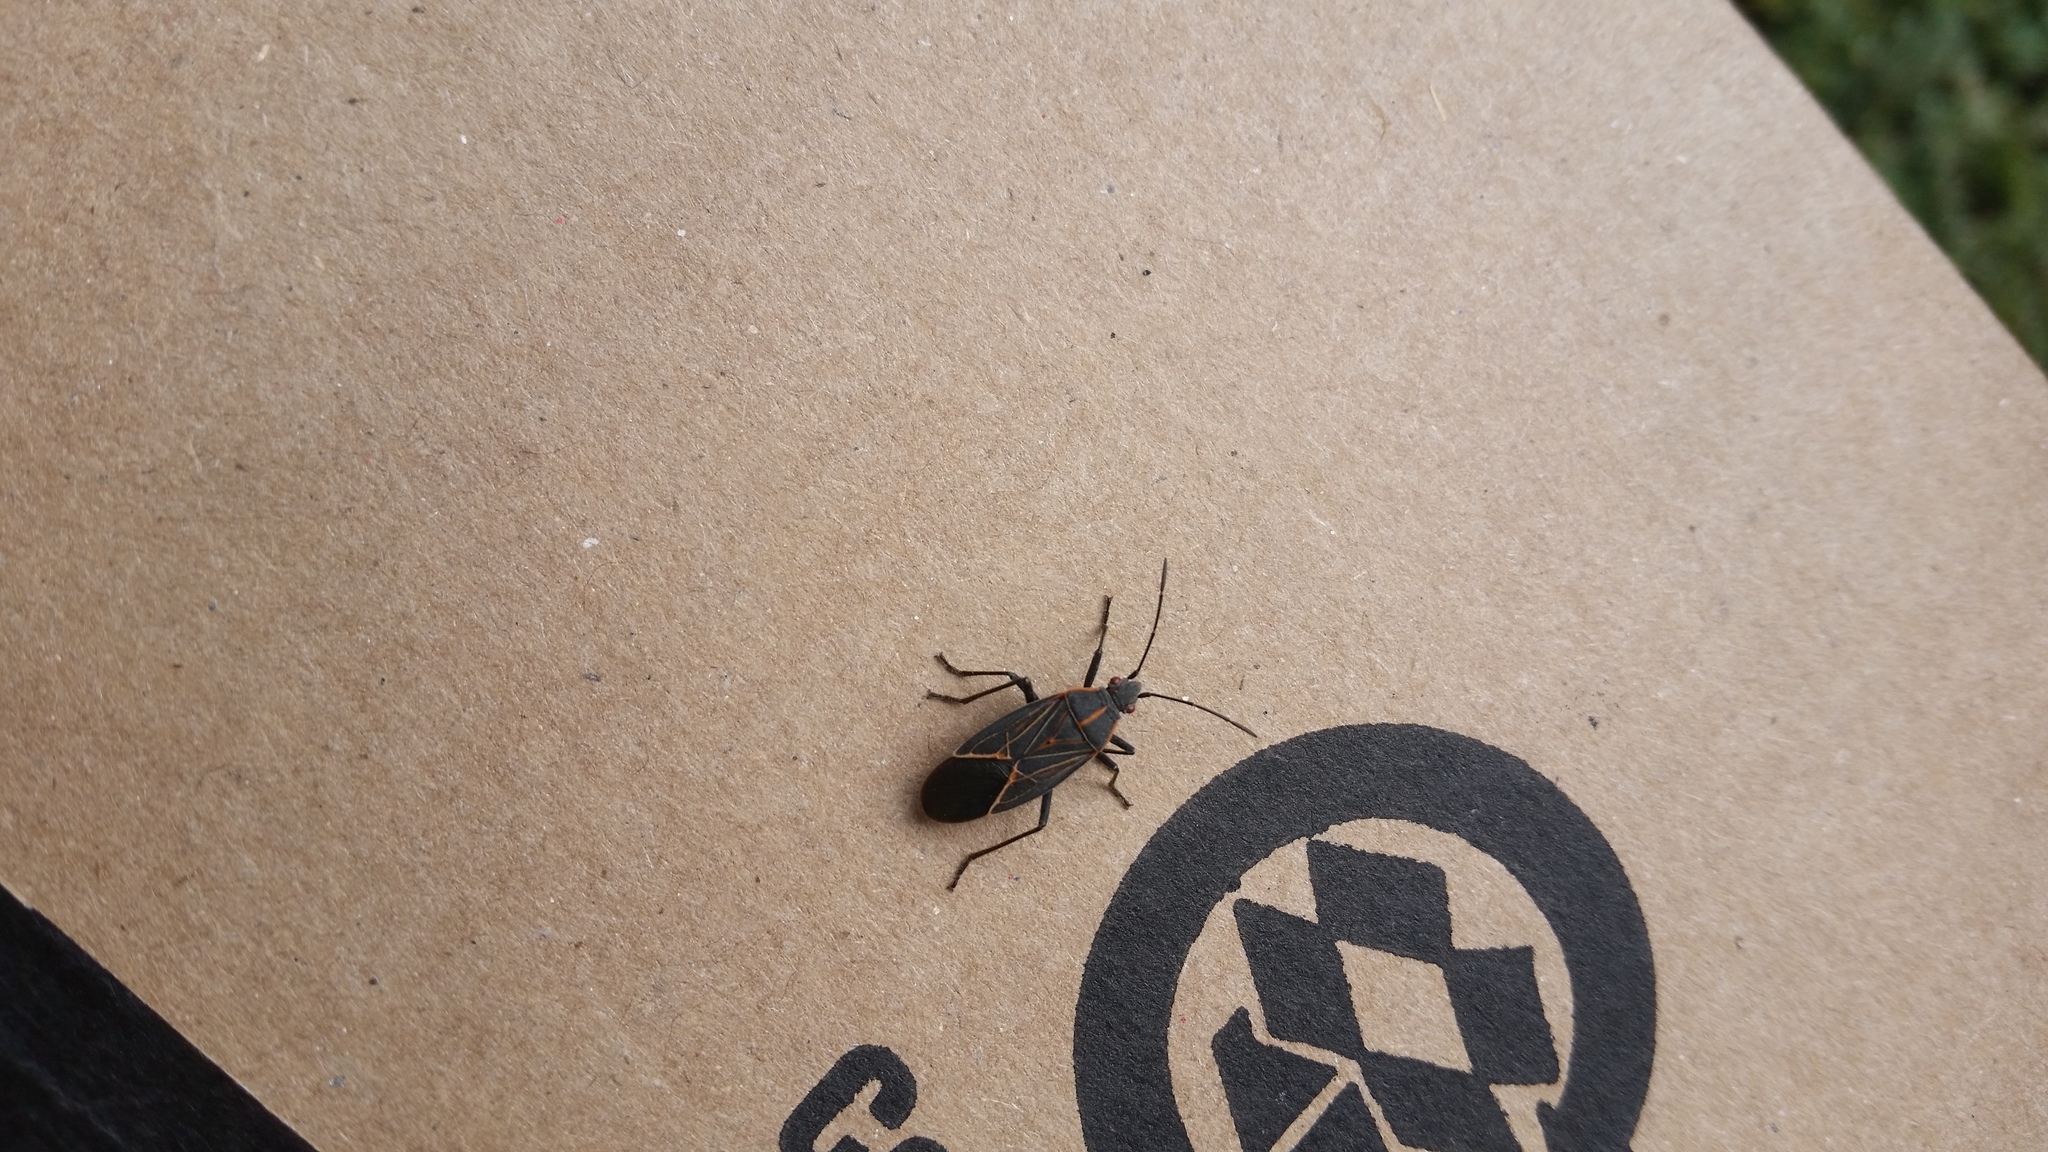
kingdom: Animalia
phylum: Arthropoda
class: Insecta
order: Hemiptera
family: Rhopalidae
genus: Boisea
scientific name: Boisea rubrolineata
